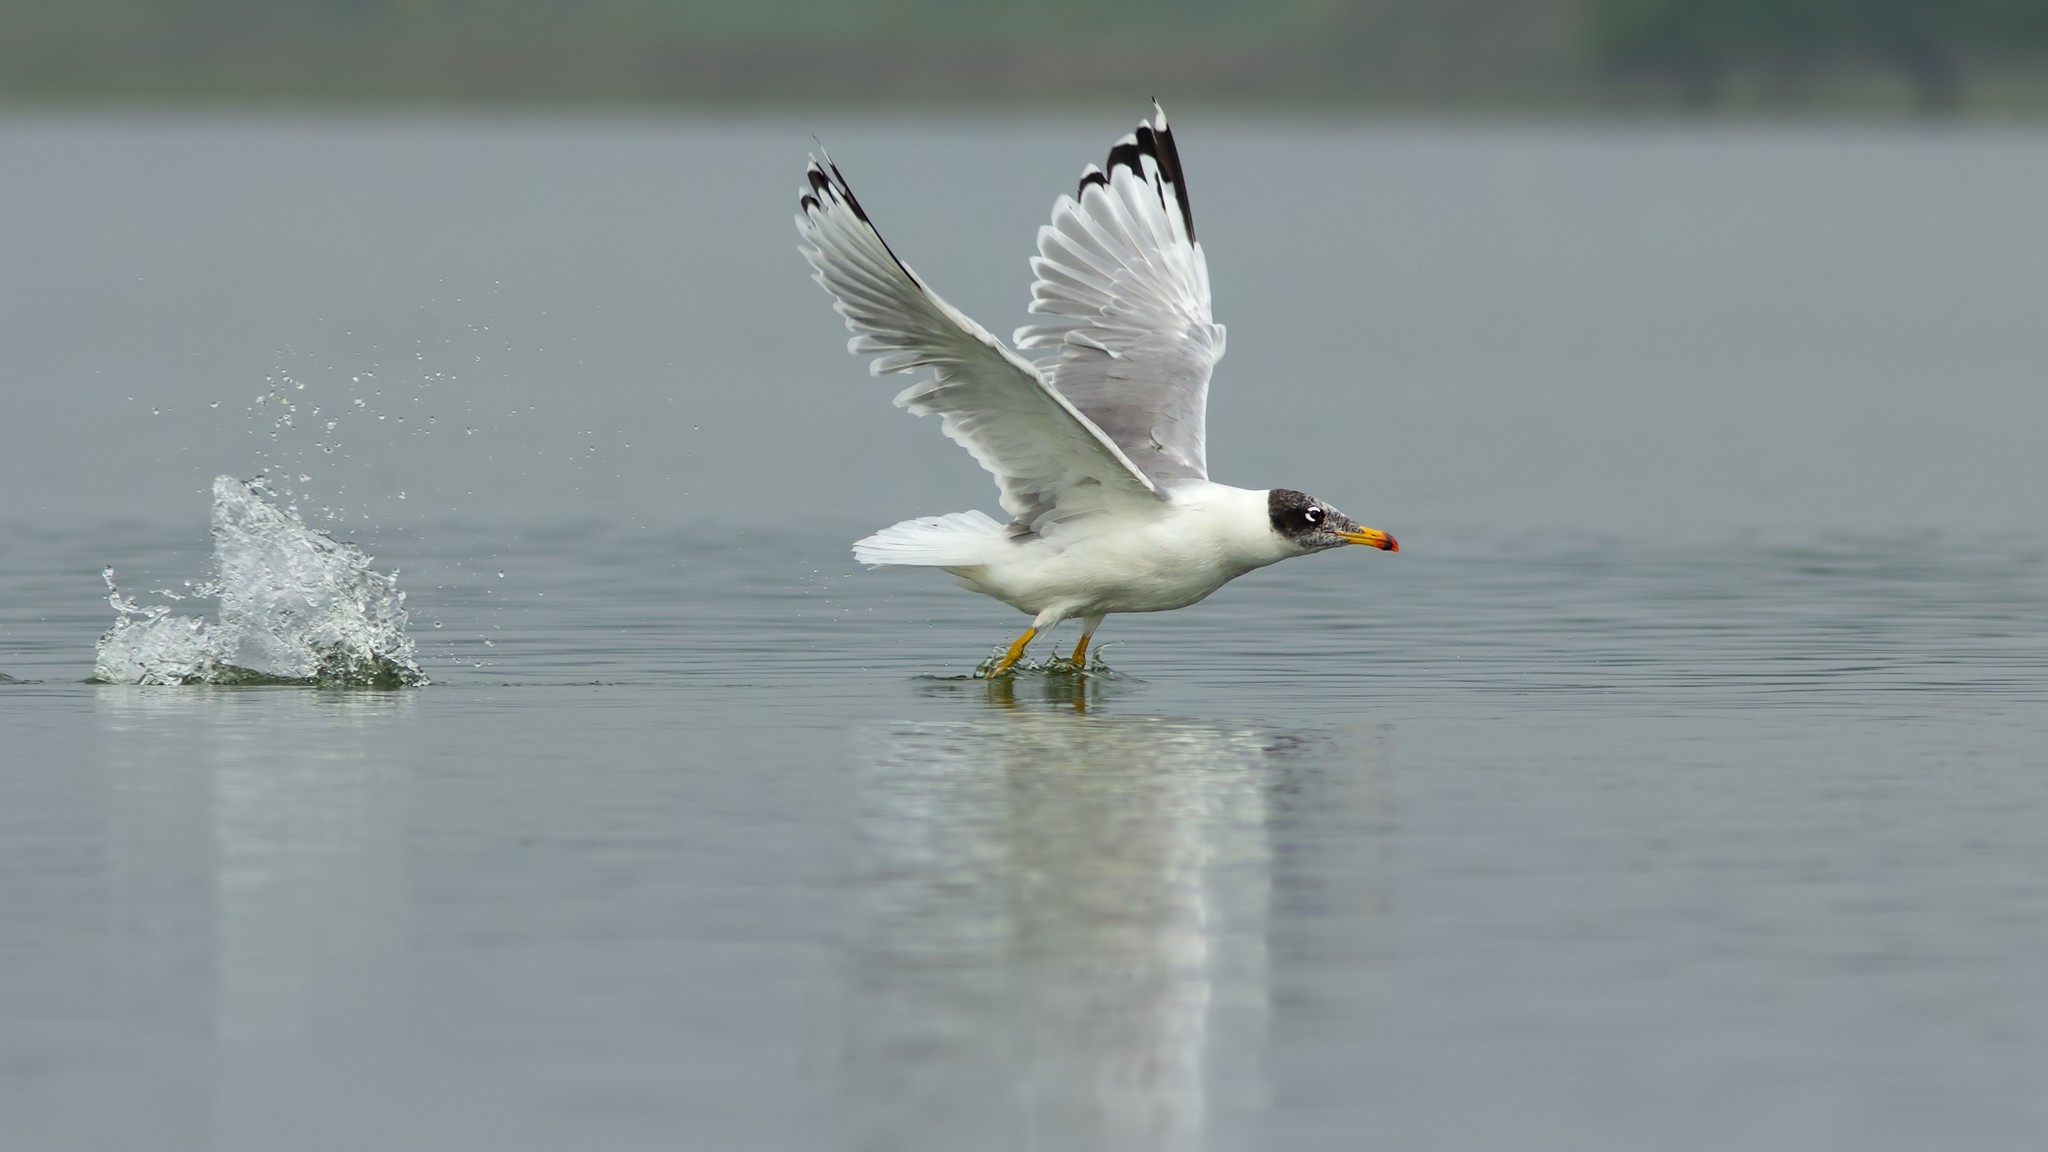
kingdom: Animalia
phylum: Chordata
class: Aves
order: Charadriiformes
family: Laridae
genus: Ichthyaetus
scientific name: Ichthyaetus ichthyaetus
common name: Pallas's gull
